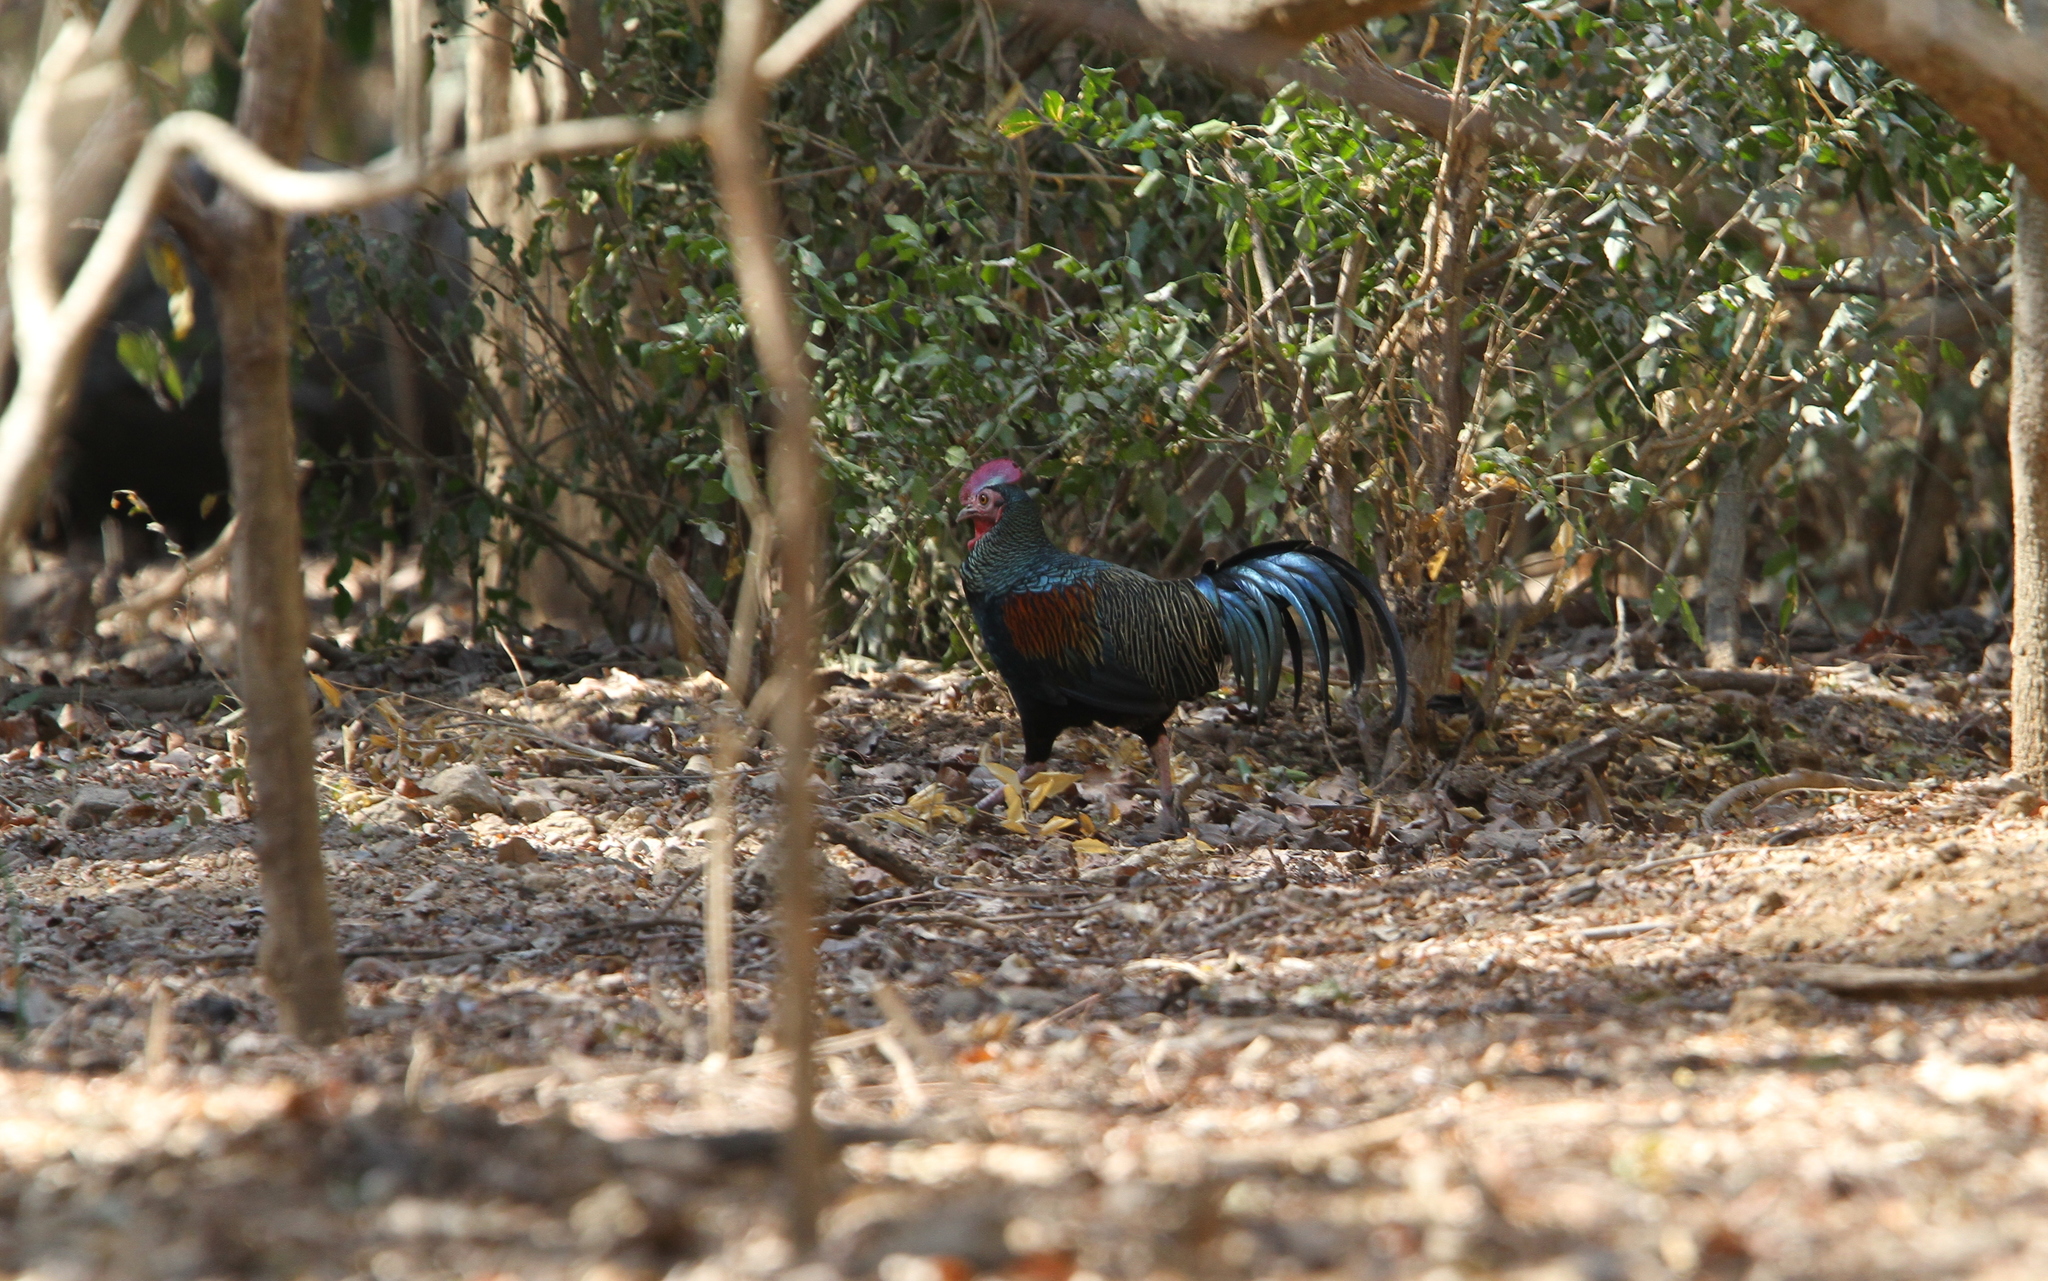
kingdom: Animalia
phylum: Chordata
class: Aves
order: Galliformes
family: Phasianidae
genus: Gallus
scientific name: Gallus varius
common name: Green junglefowl
